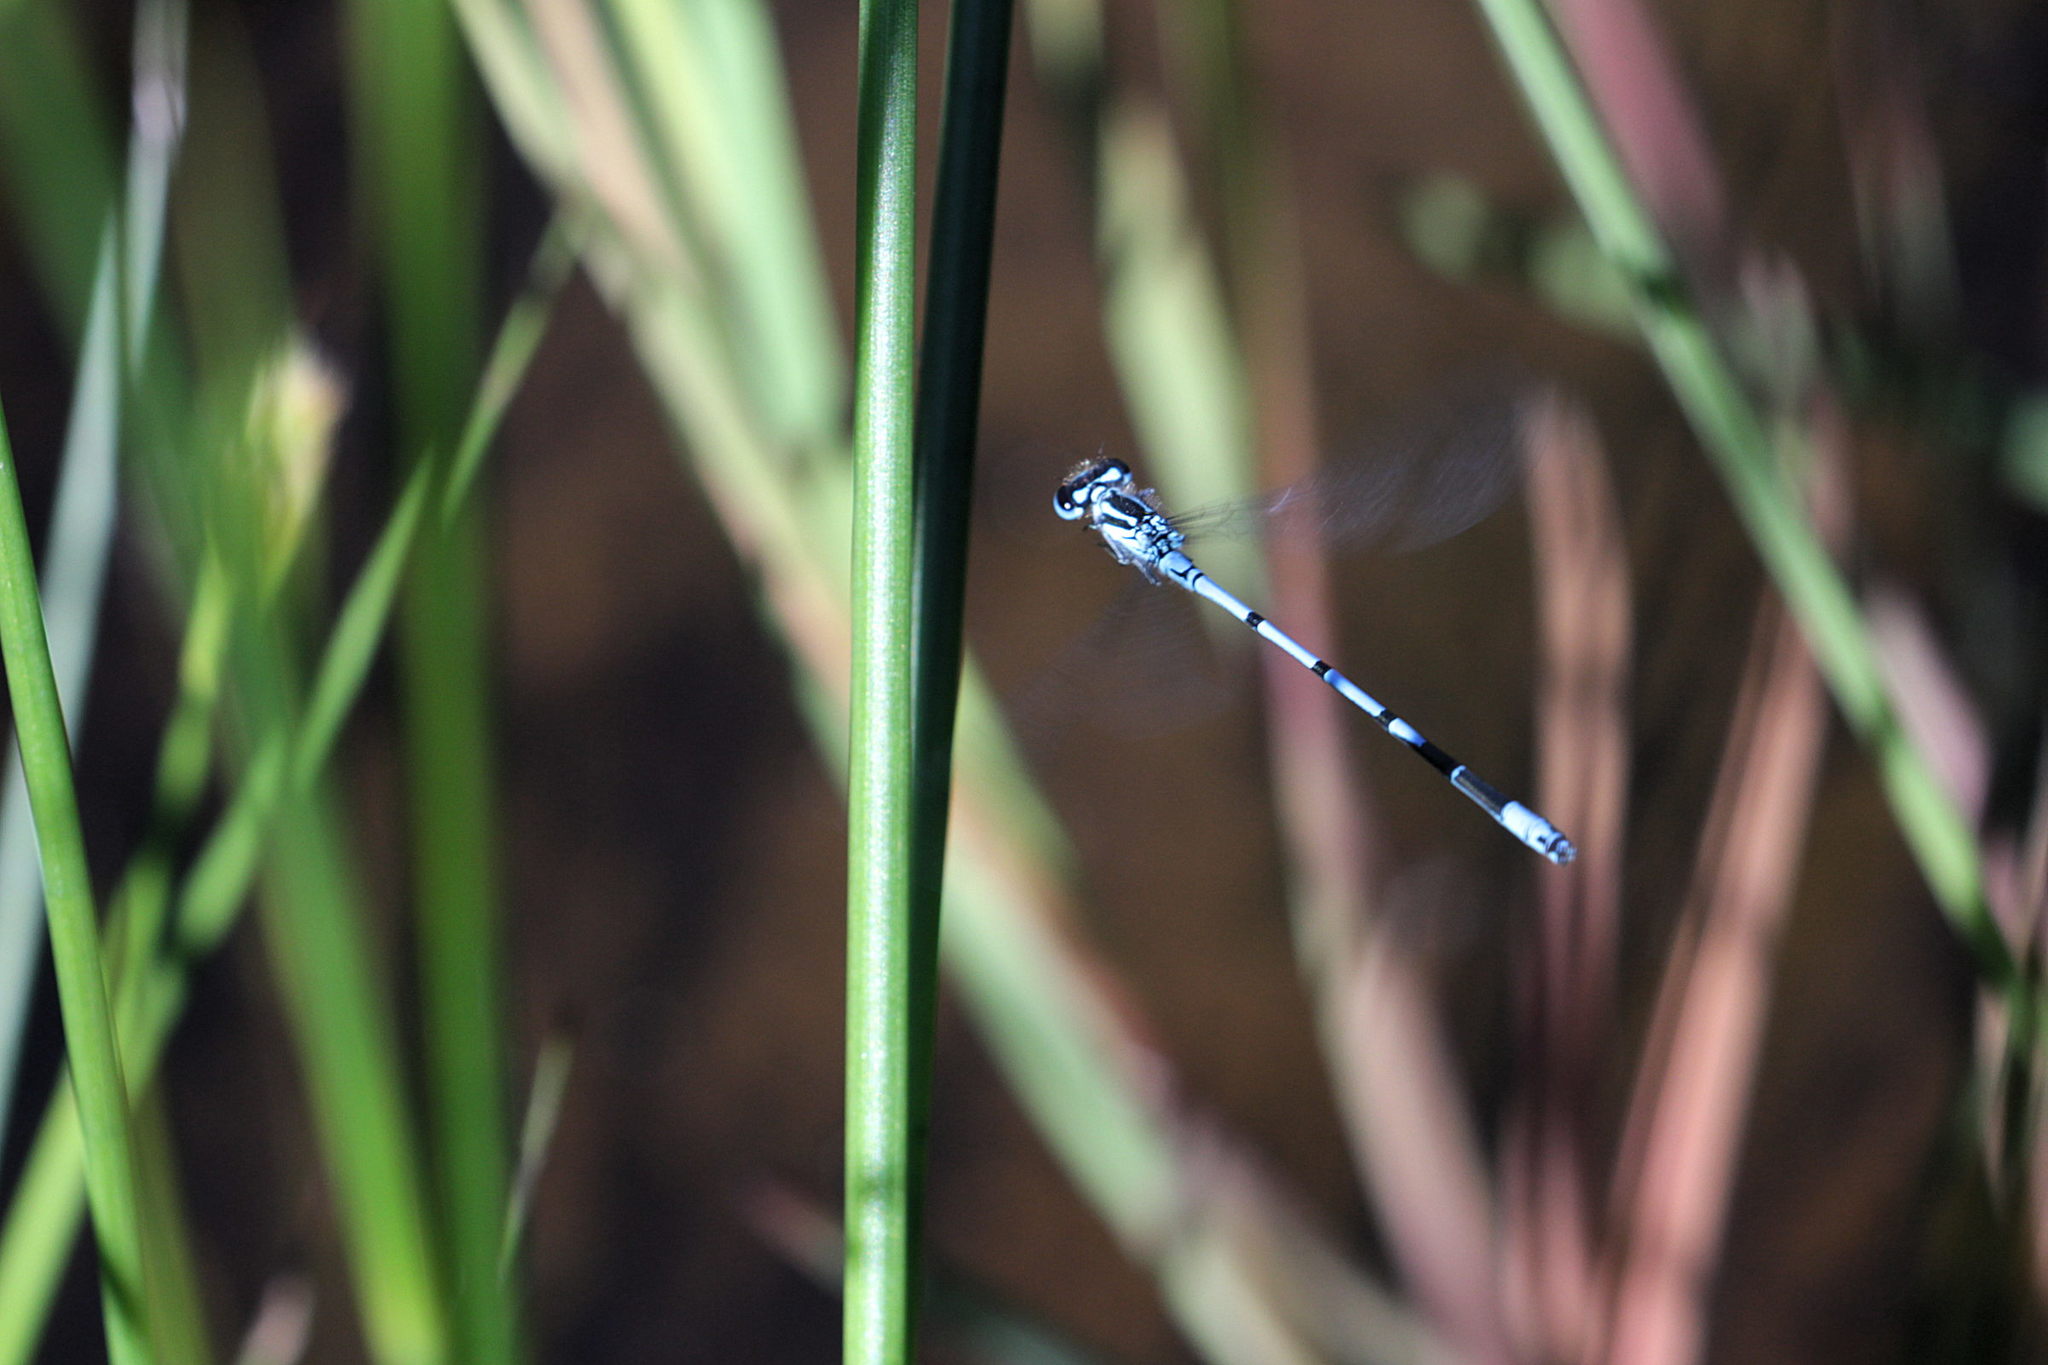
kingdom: Animalia
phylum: Arthropoda
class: Insecta
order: Odonata
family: Coenagrionidae
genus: Coenagrion
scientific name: Coenagrion puella
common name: Azure damselfly
